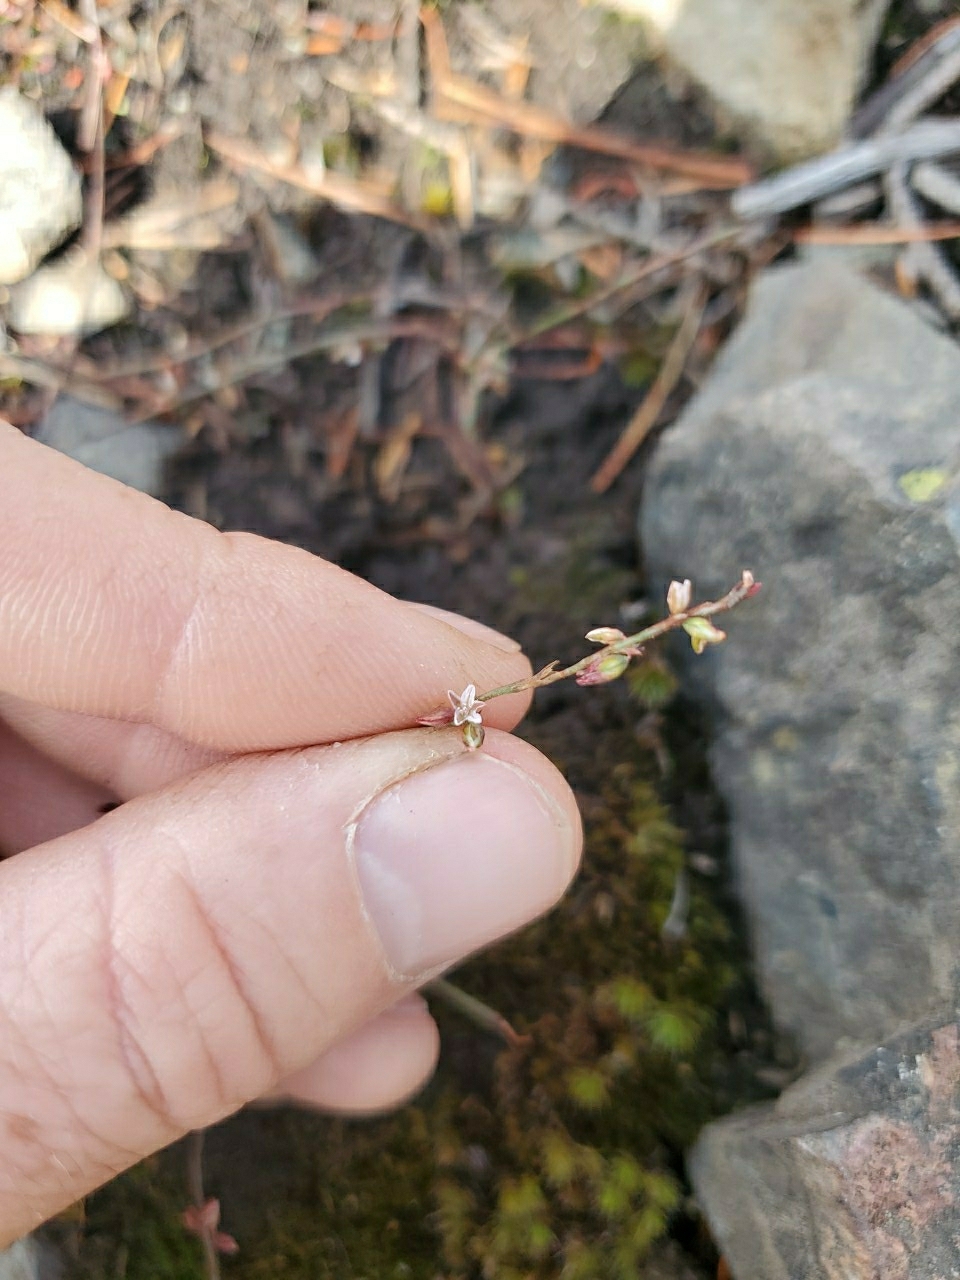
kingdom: Plantae
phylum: Tracheophyta
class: Magnoliopsida
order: Caryophyllales
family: Polygonaceae
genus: Polygonum
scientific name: Polygonum douglasii
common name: Douglas' knotweed
